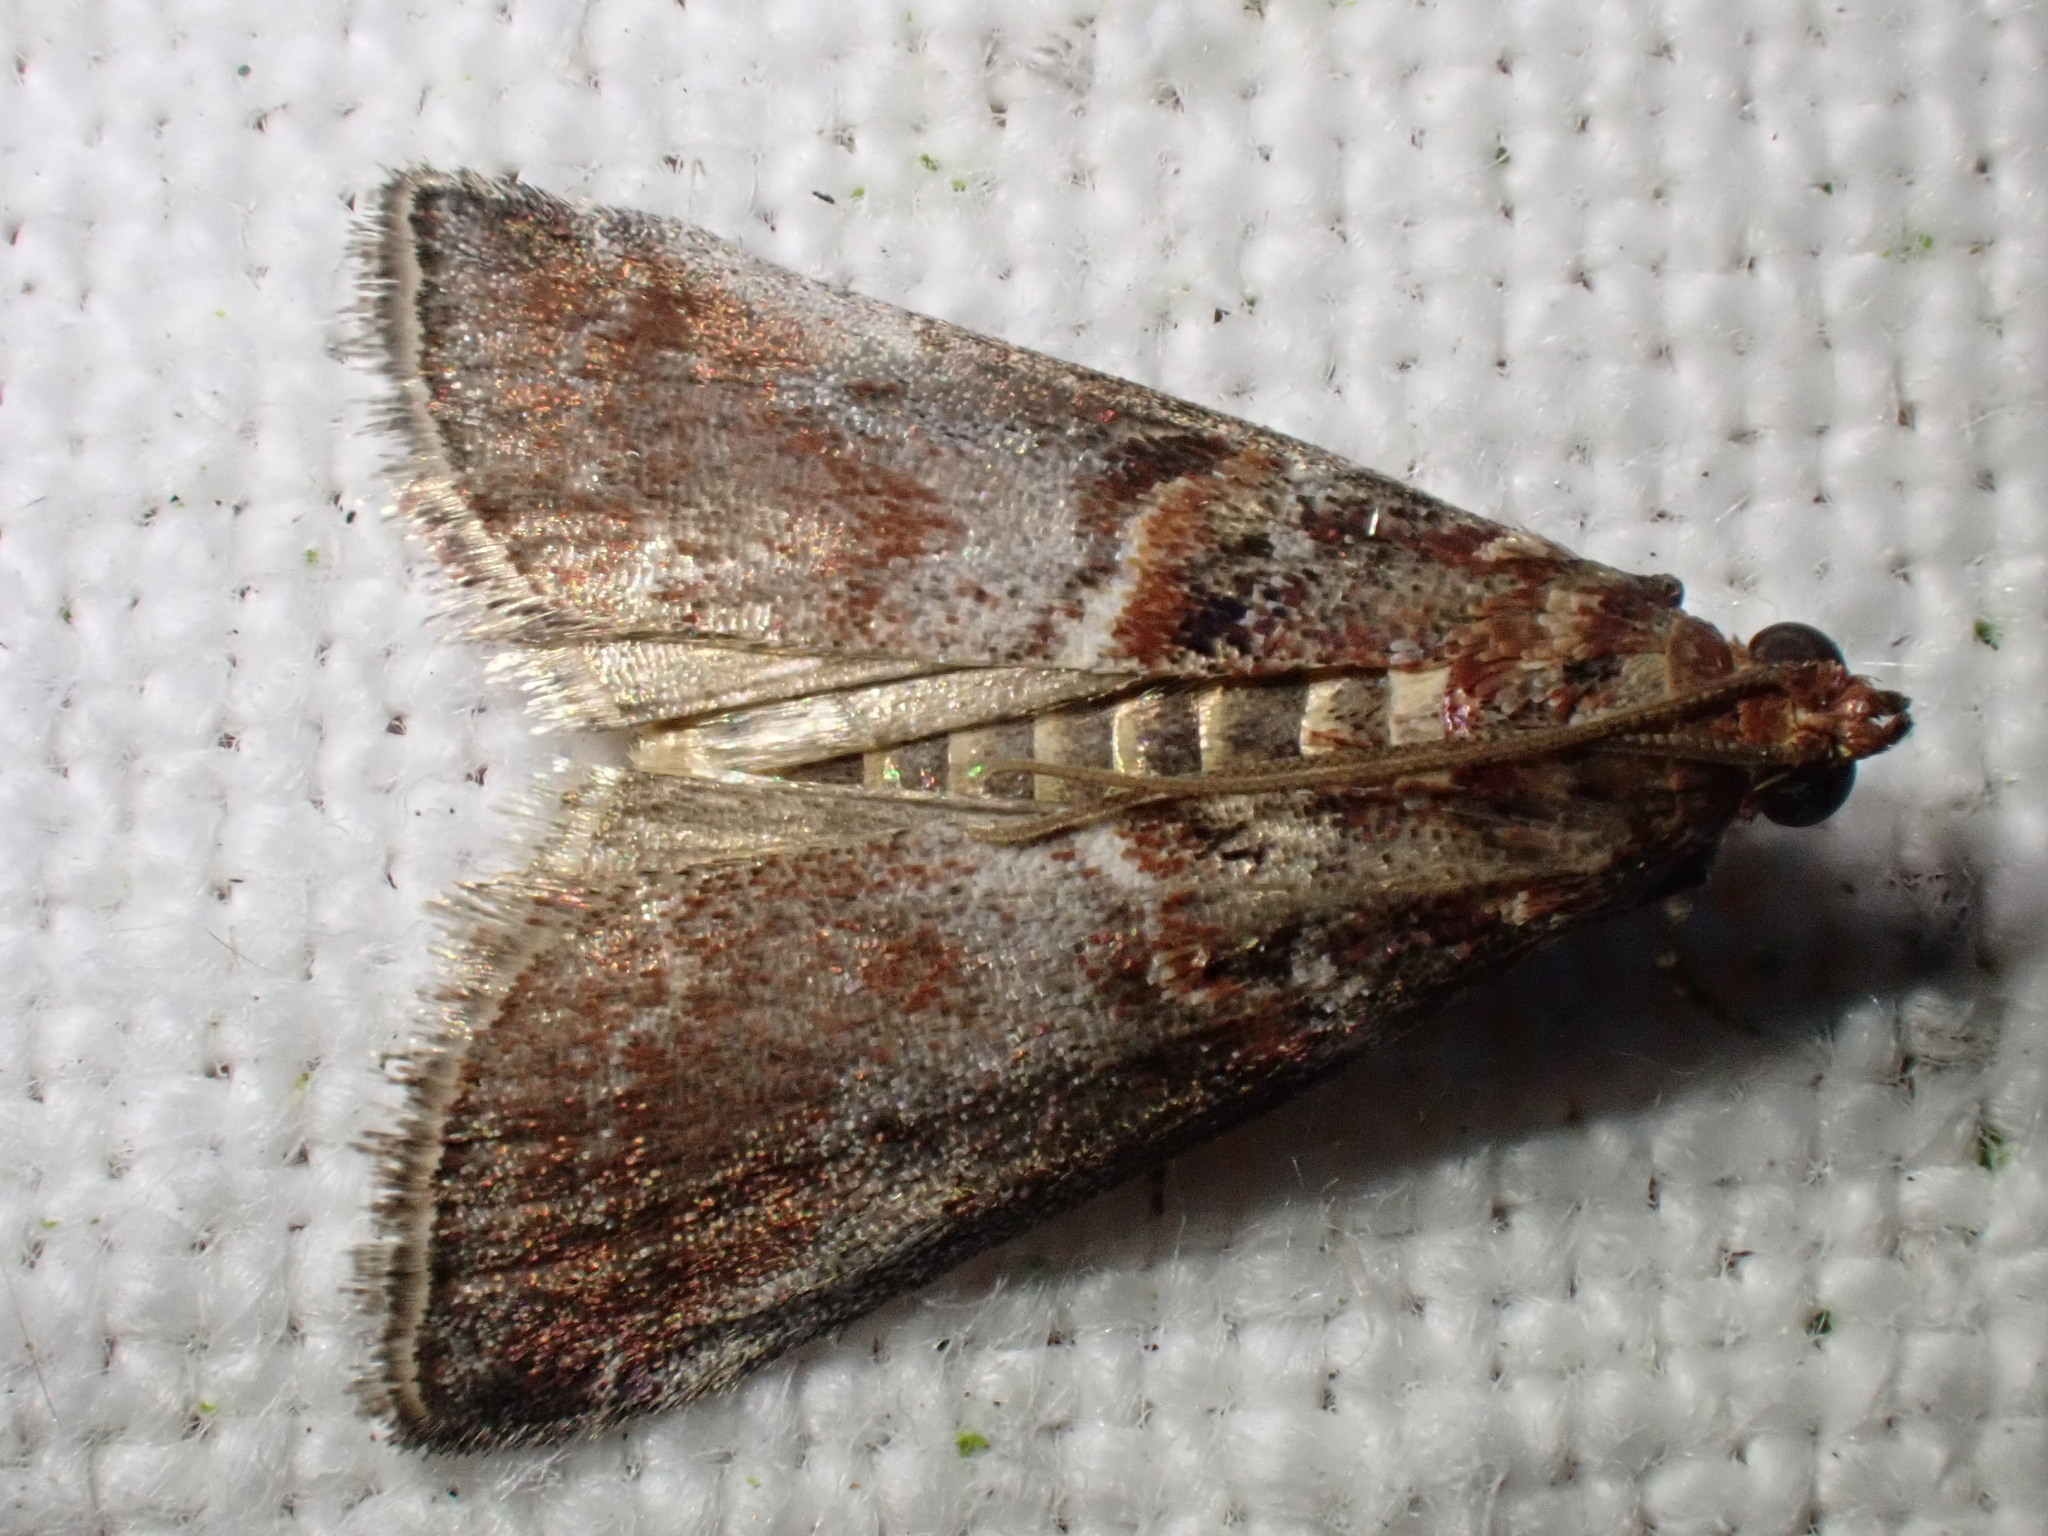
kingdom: Animalia
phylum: Arthropoda
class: Insecta
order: Lepidoptera
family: Pyralidae
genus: Acrobasis
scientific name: Acrobasis advenella
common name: Grey knot-horn
